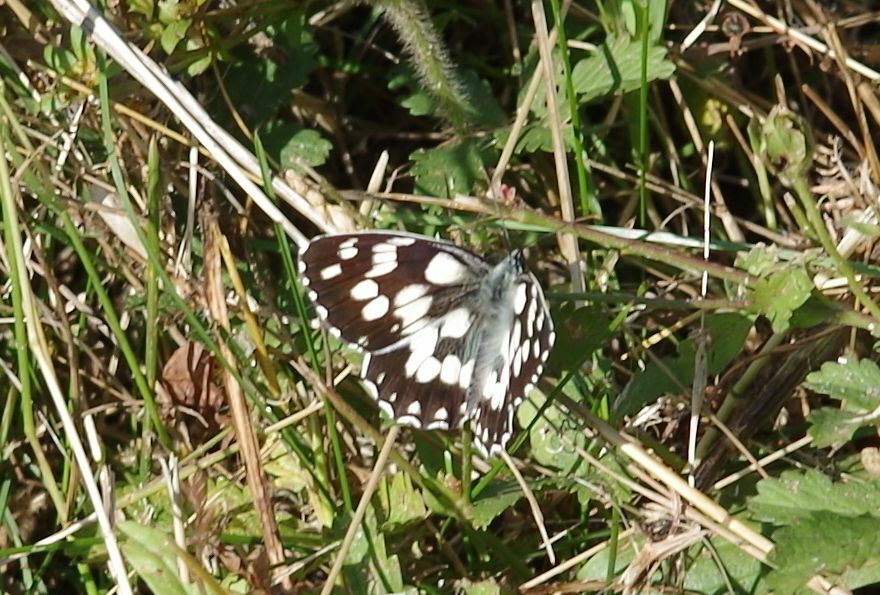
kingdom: Animalia
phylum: Arthropoda
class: Insecta
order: Lepidoptera
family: Nymphalidae
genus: Melanargia
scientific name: Melanargia galathea
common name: Marbled white
